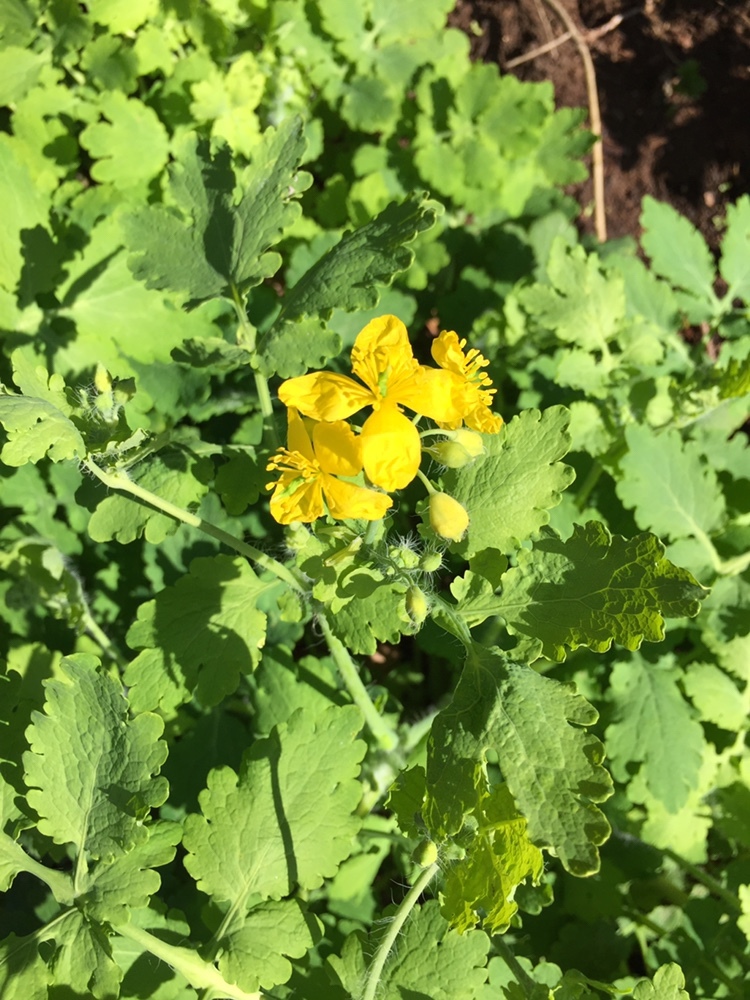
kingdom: Plantae
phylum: Tracheophyta
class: Magnoliopsida
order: Ranunculales
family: Papaveraceae
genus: Chelidonium
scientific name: Chelidonium majus
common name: Greater celandine
